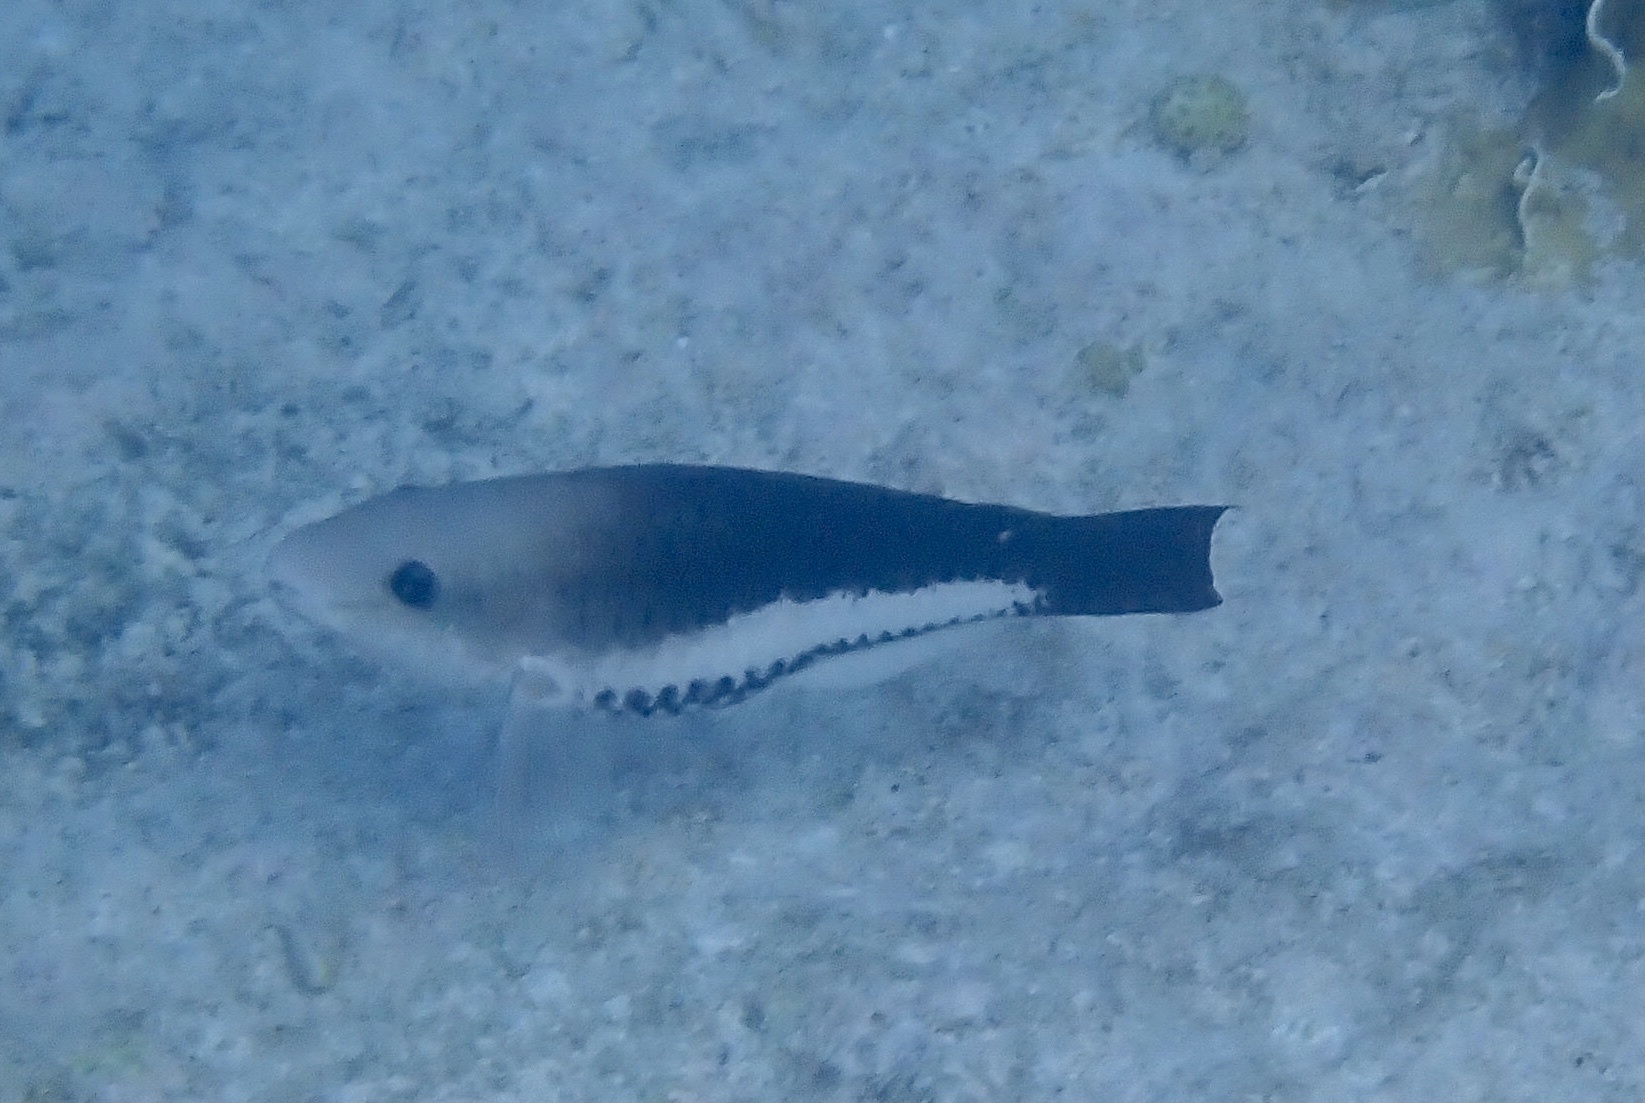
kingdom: Animalia
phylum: Chordata
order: Perciformes
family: Scaridae
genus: Scarus
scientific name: Scarus vetula
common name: Queen parrotfish
